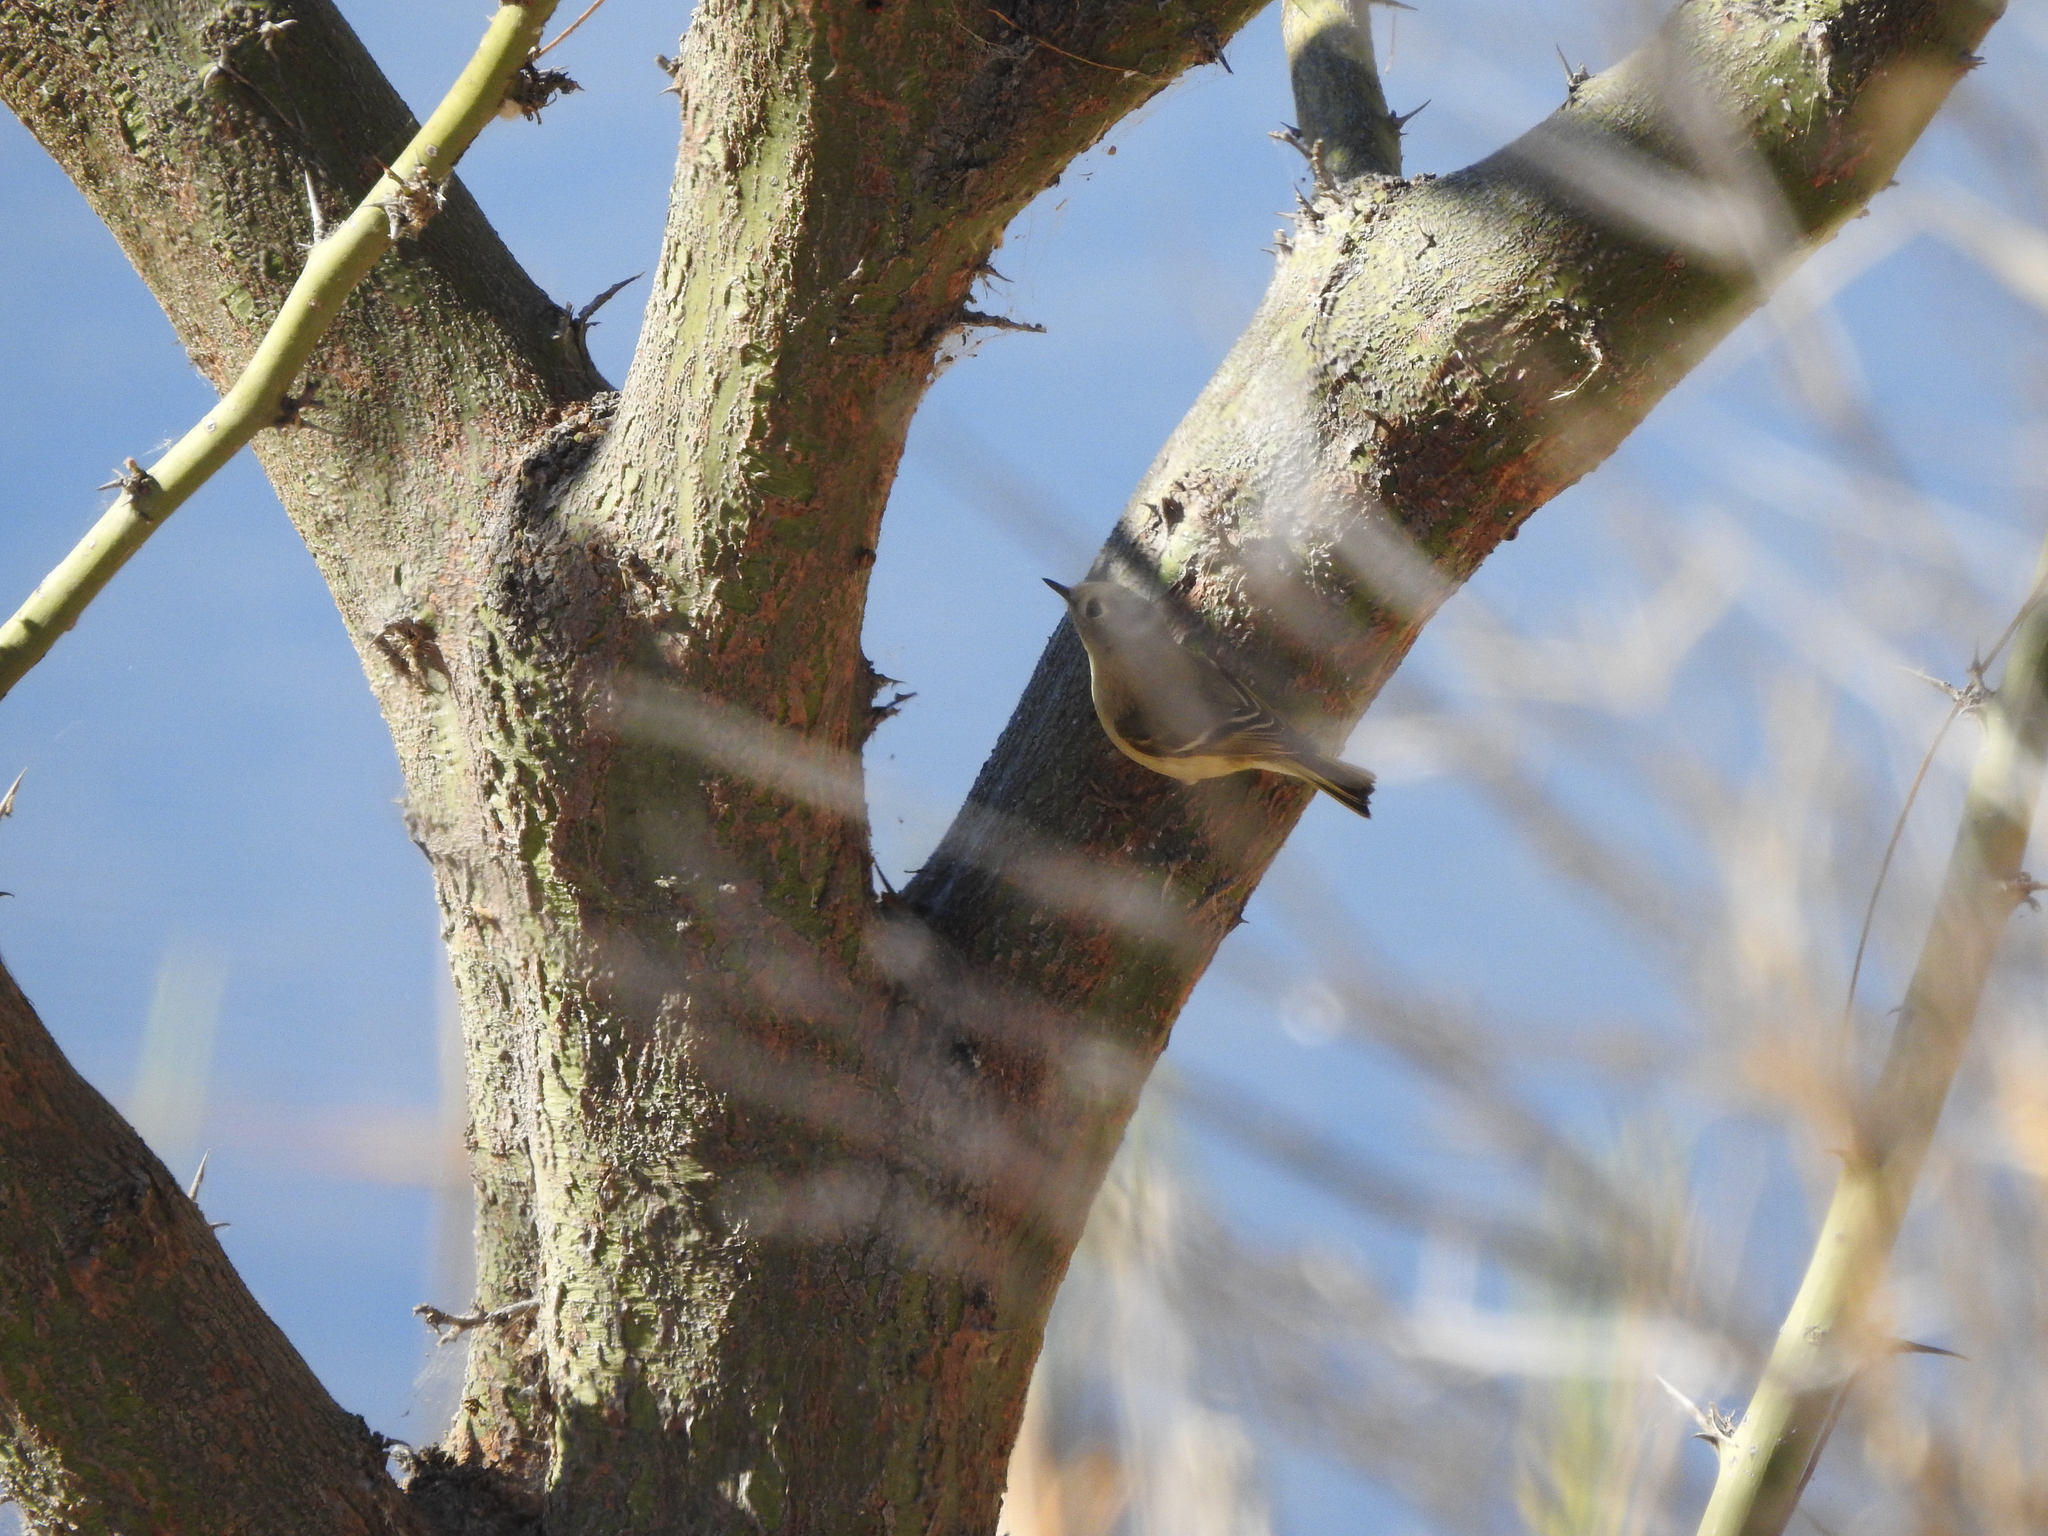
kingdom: Animalia
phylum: Chordata
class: Aves
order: Passeriformes
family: Regulidae
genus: Regulus
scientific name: Regulus calendula
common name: Ruby-crowned kinglet
